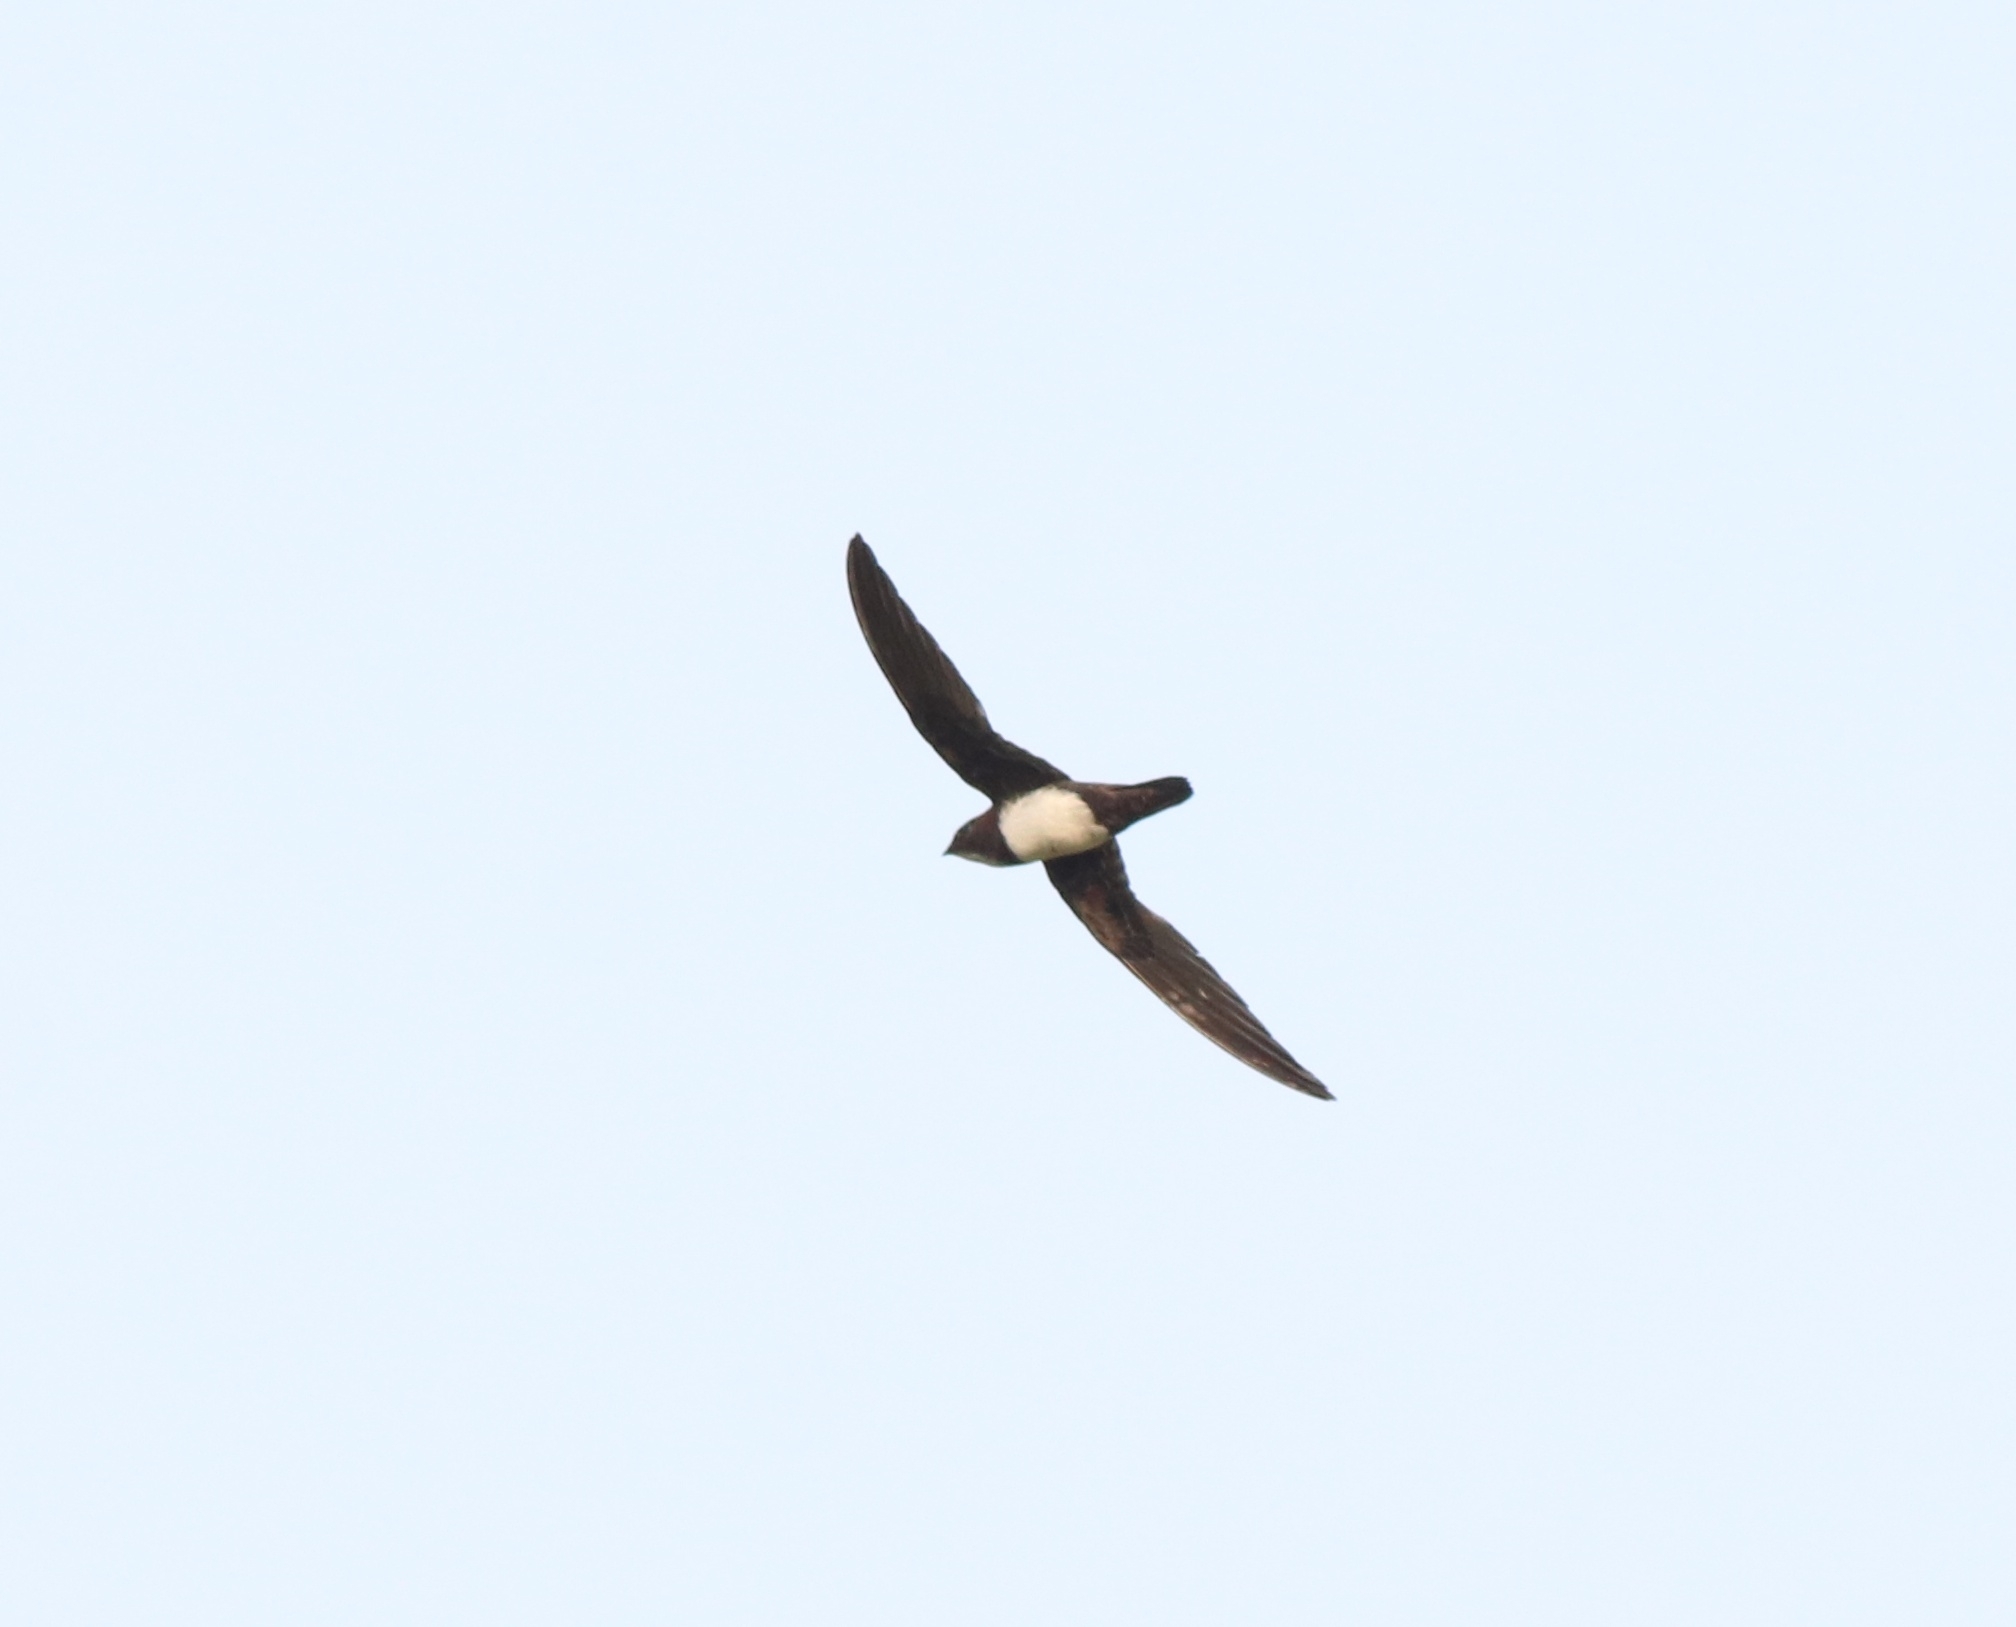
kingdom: Animalia
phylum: Chordata
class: Aves
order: Apodiformes
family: Apodidae
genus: Tachymarptis
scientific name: Tachymarptis melba
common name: Alpine swift
